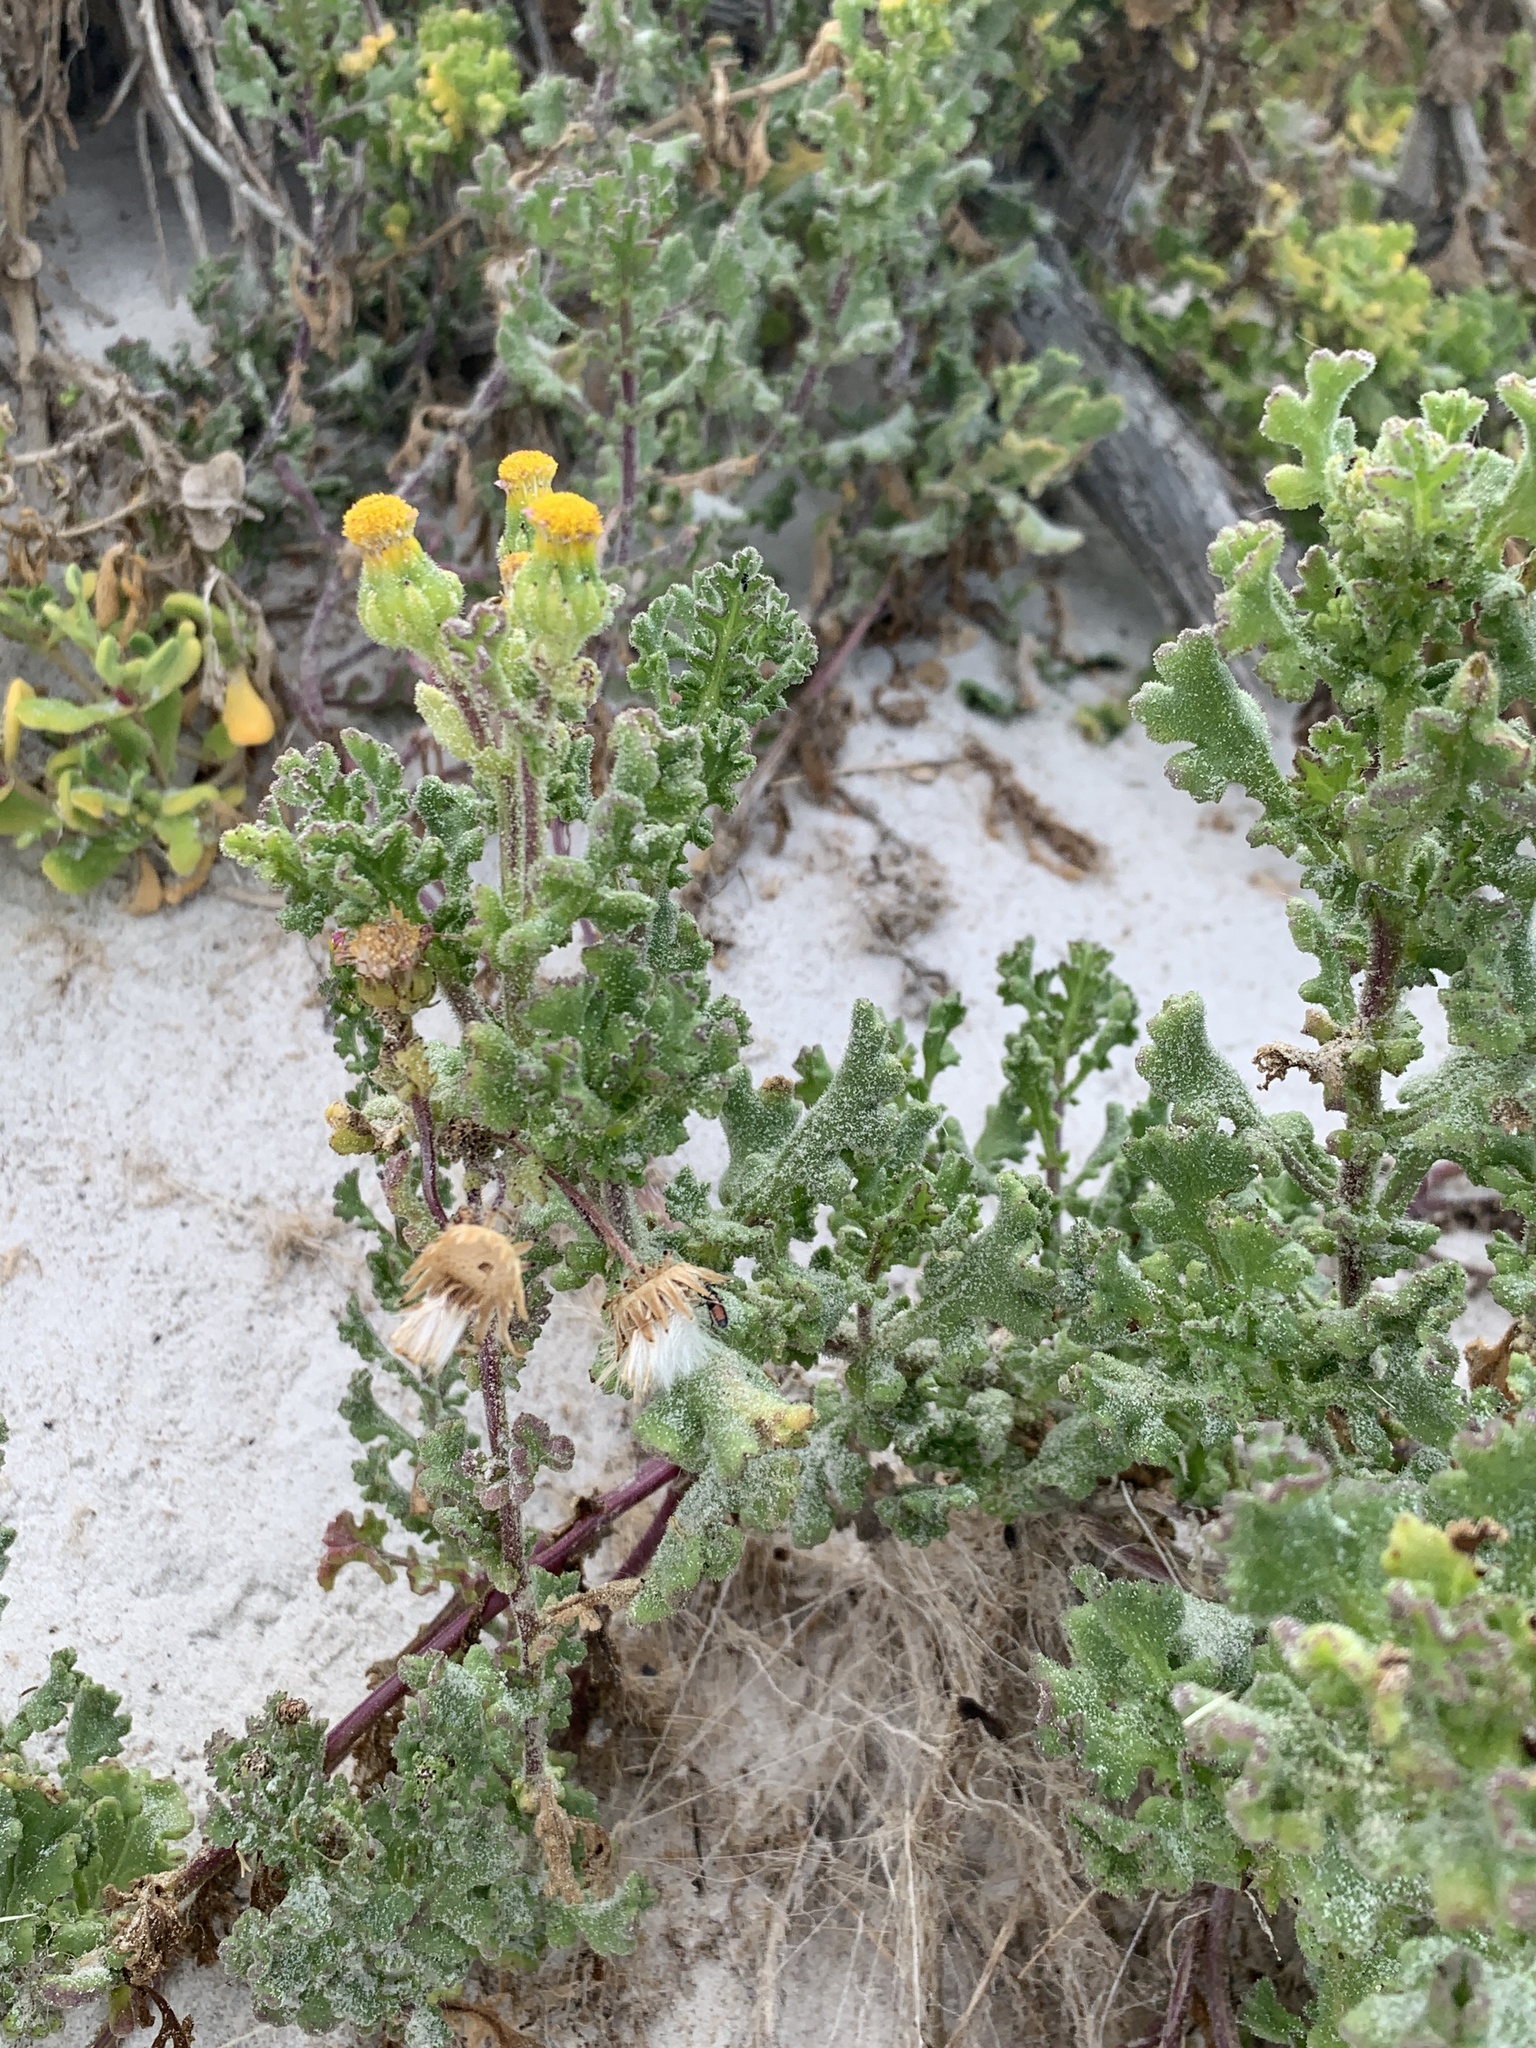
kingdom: Plantae
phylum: Tracheophyta
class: Magnoliopsida
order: Asterales
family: Asteraceae
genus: Senecio
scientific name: Senecio maritimus
